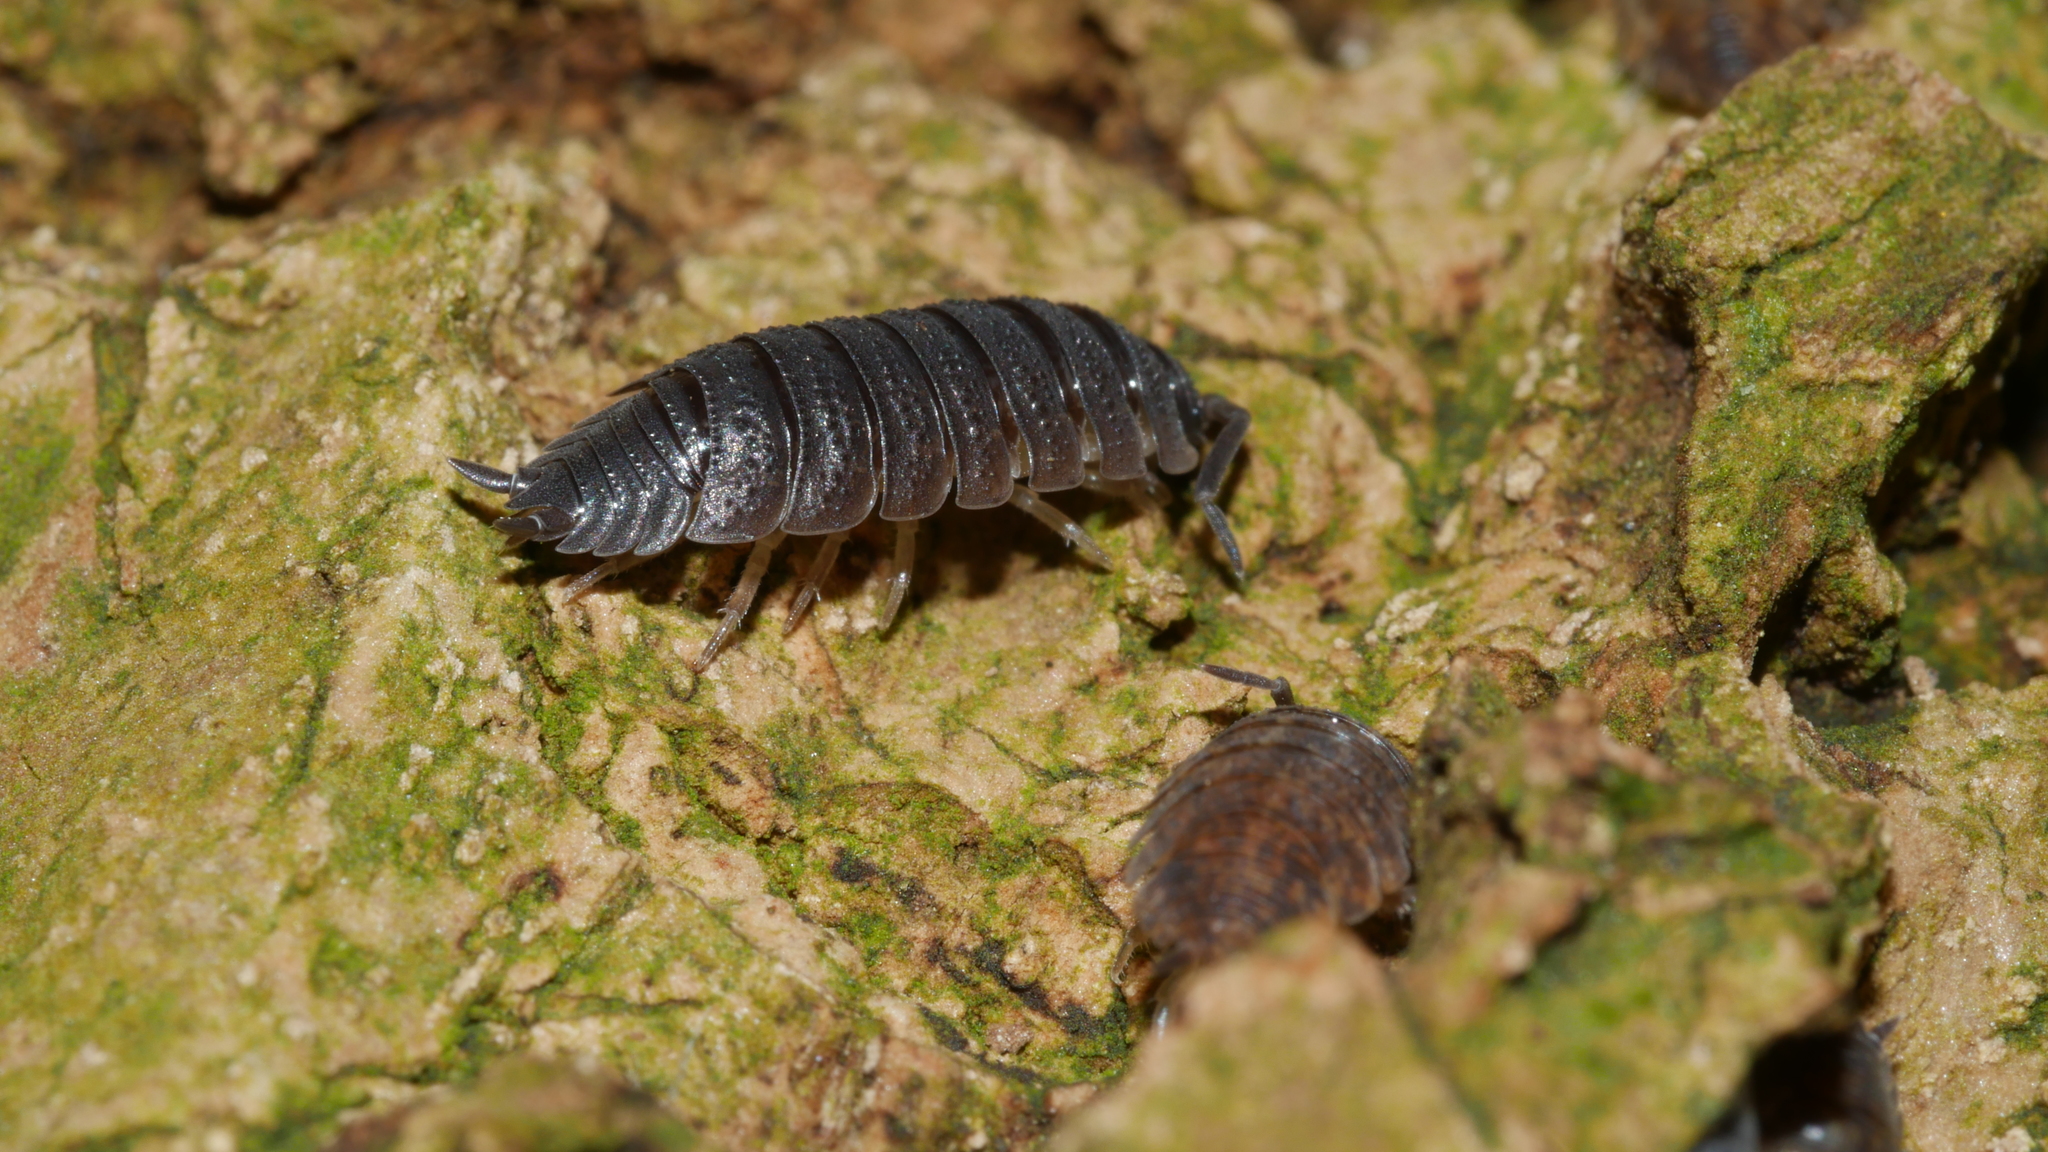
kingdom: Animalia
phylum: Arthropoda
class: Malacostraca
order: Isopoda
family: Porcellionidae
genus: Porcellio
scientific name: Porcellio scaber
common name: Common rough woodlouse
